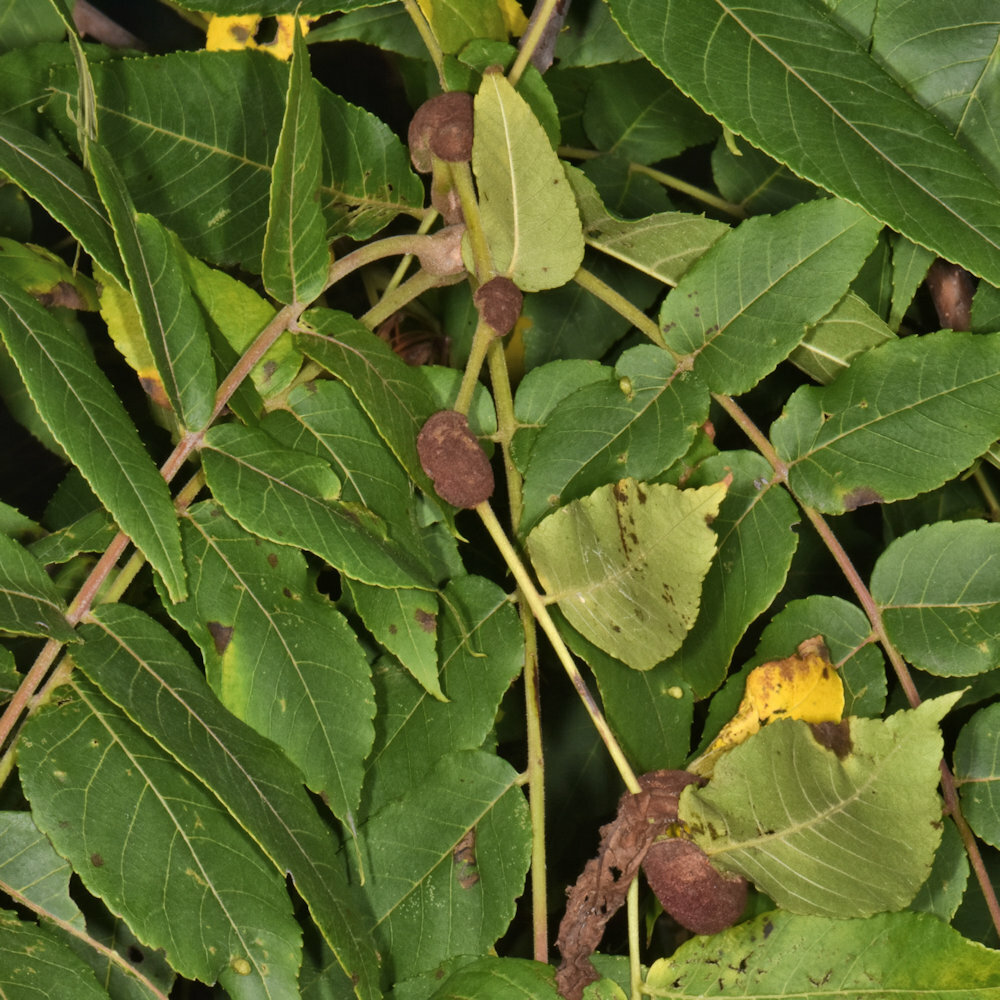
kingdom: Animalia
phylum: Arthropoda
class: Arachnida
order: Trombidiformes
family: Eriophyidae
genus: Aceria
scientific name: Aceria
